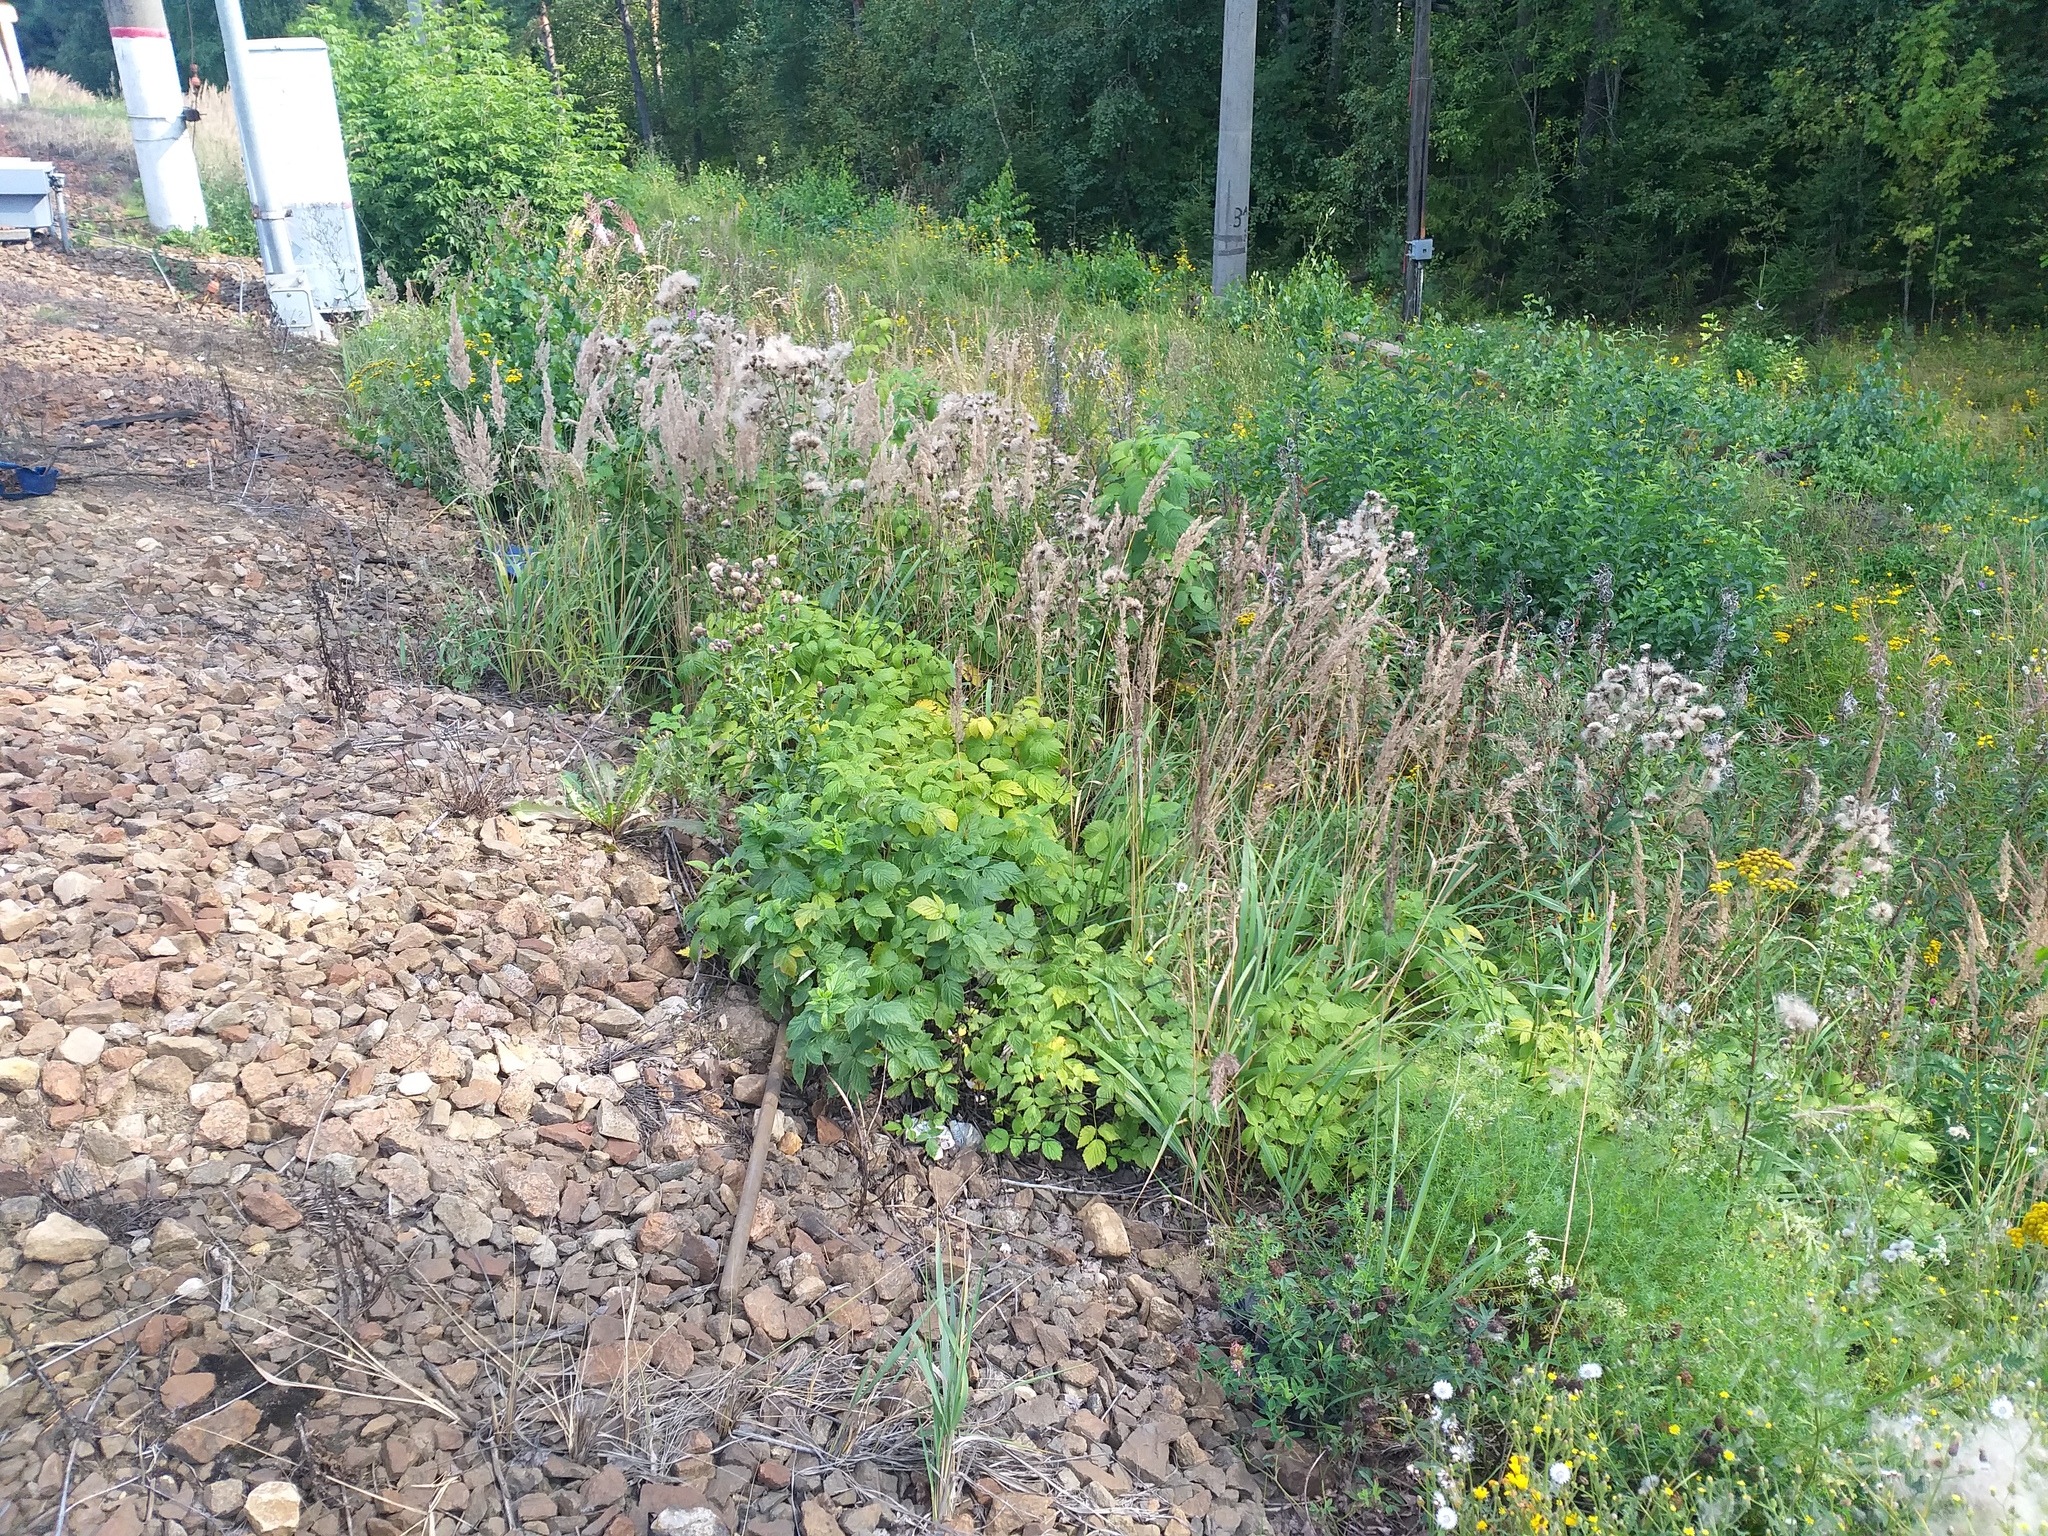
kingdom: Plantae
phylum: Tracheophyta
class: Magnoliopsida
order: Rosales
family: Rosaceae
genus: Rubus
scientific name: Rubus idaeus
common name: Raspberry
